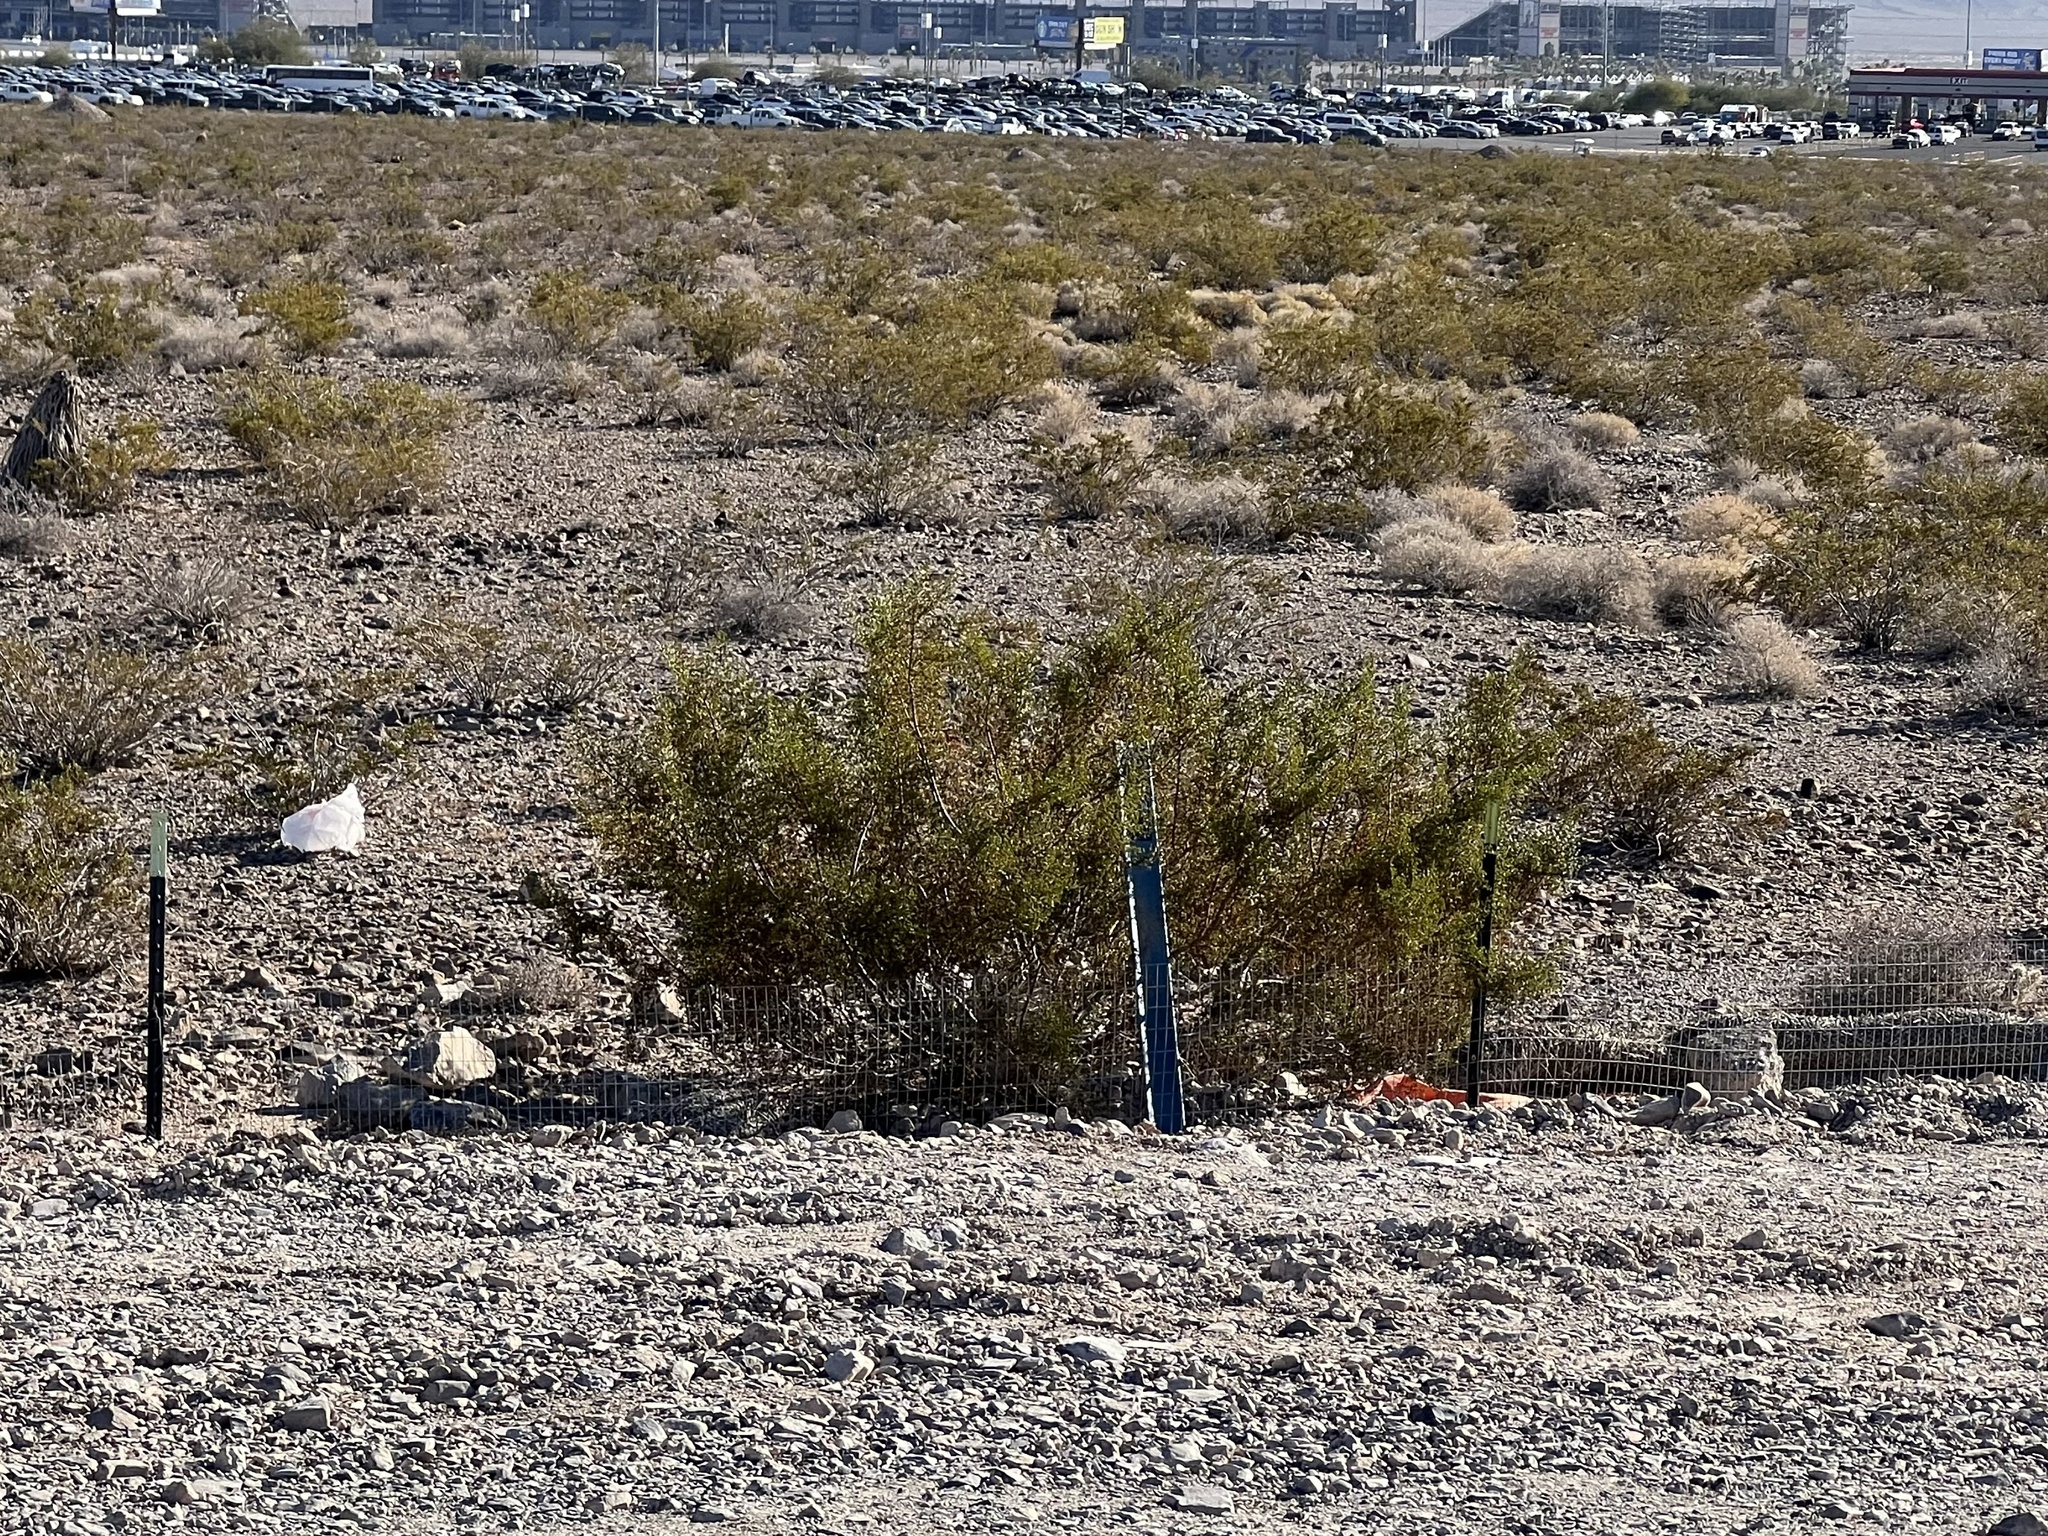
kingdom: Plantae
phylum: Tracheophyta
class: Magnoliopsida
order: Zygophyllales
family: Zygophyllaceae
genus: Larrea
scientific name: Larrea tridentata
